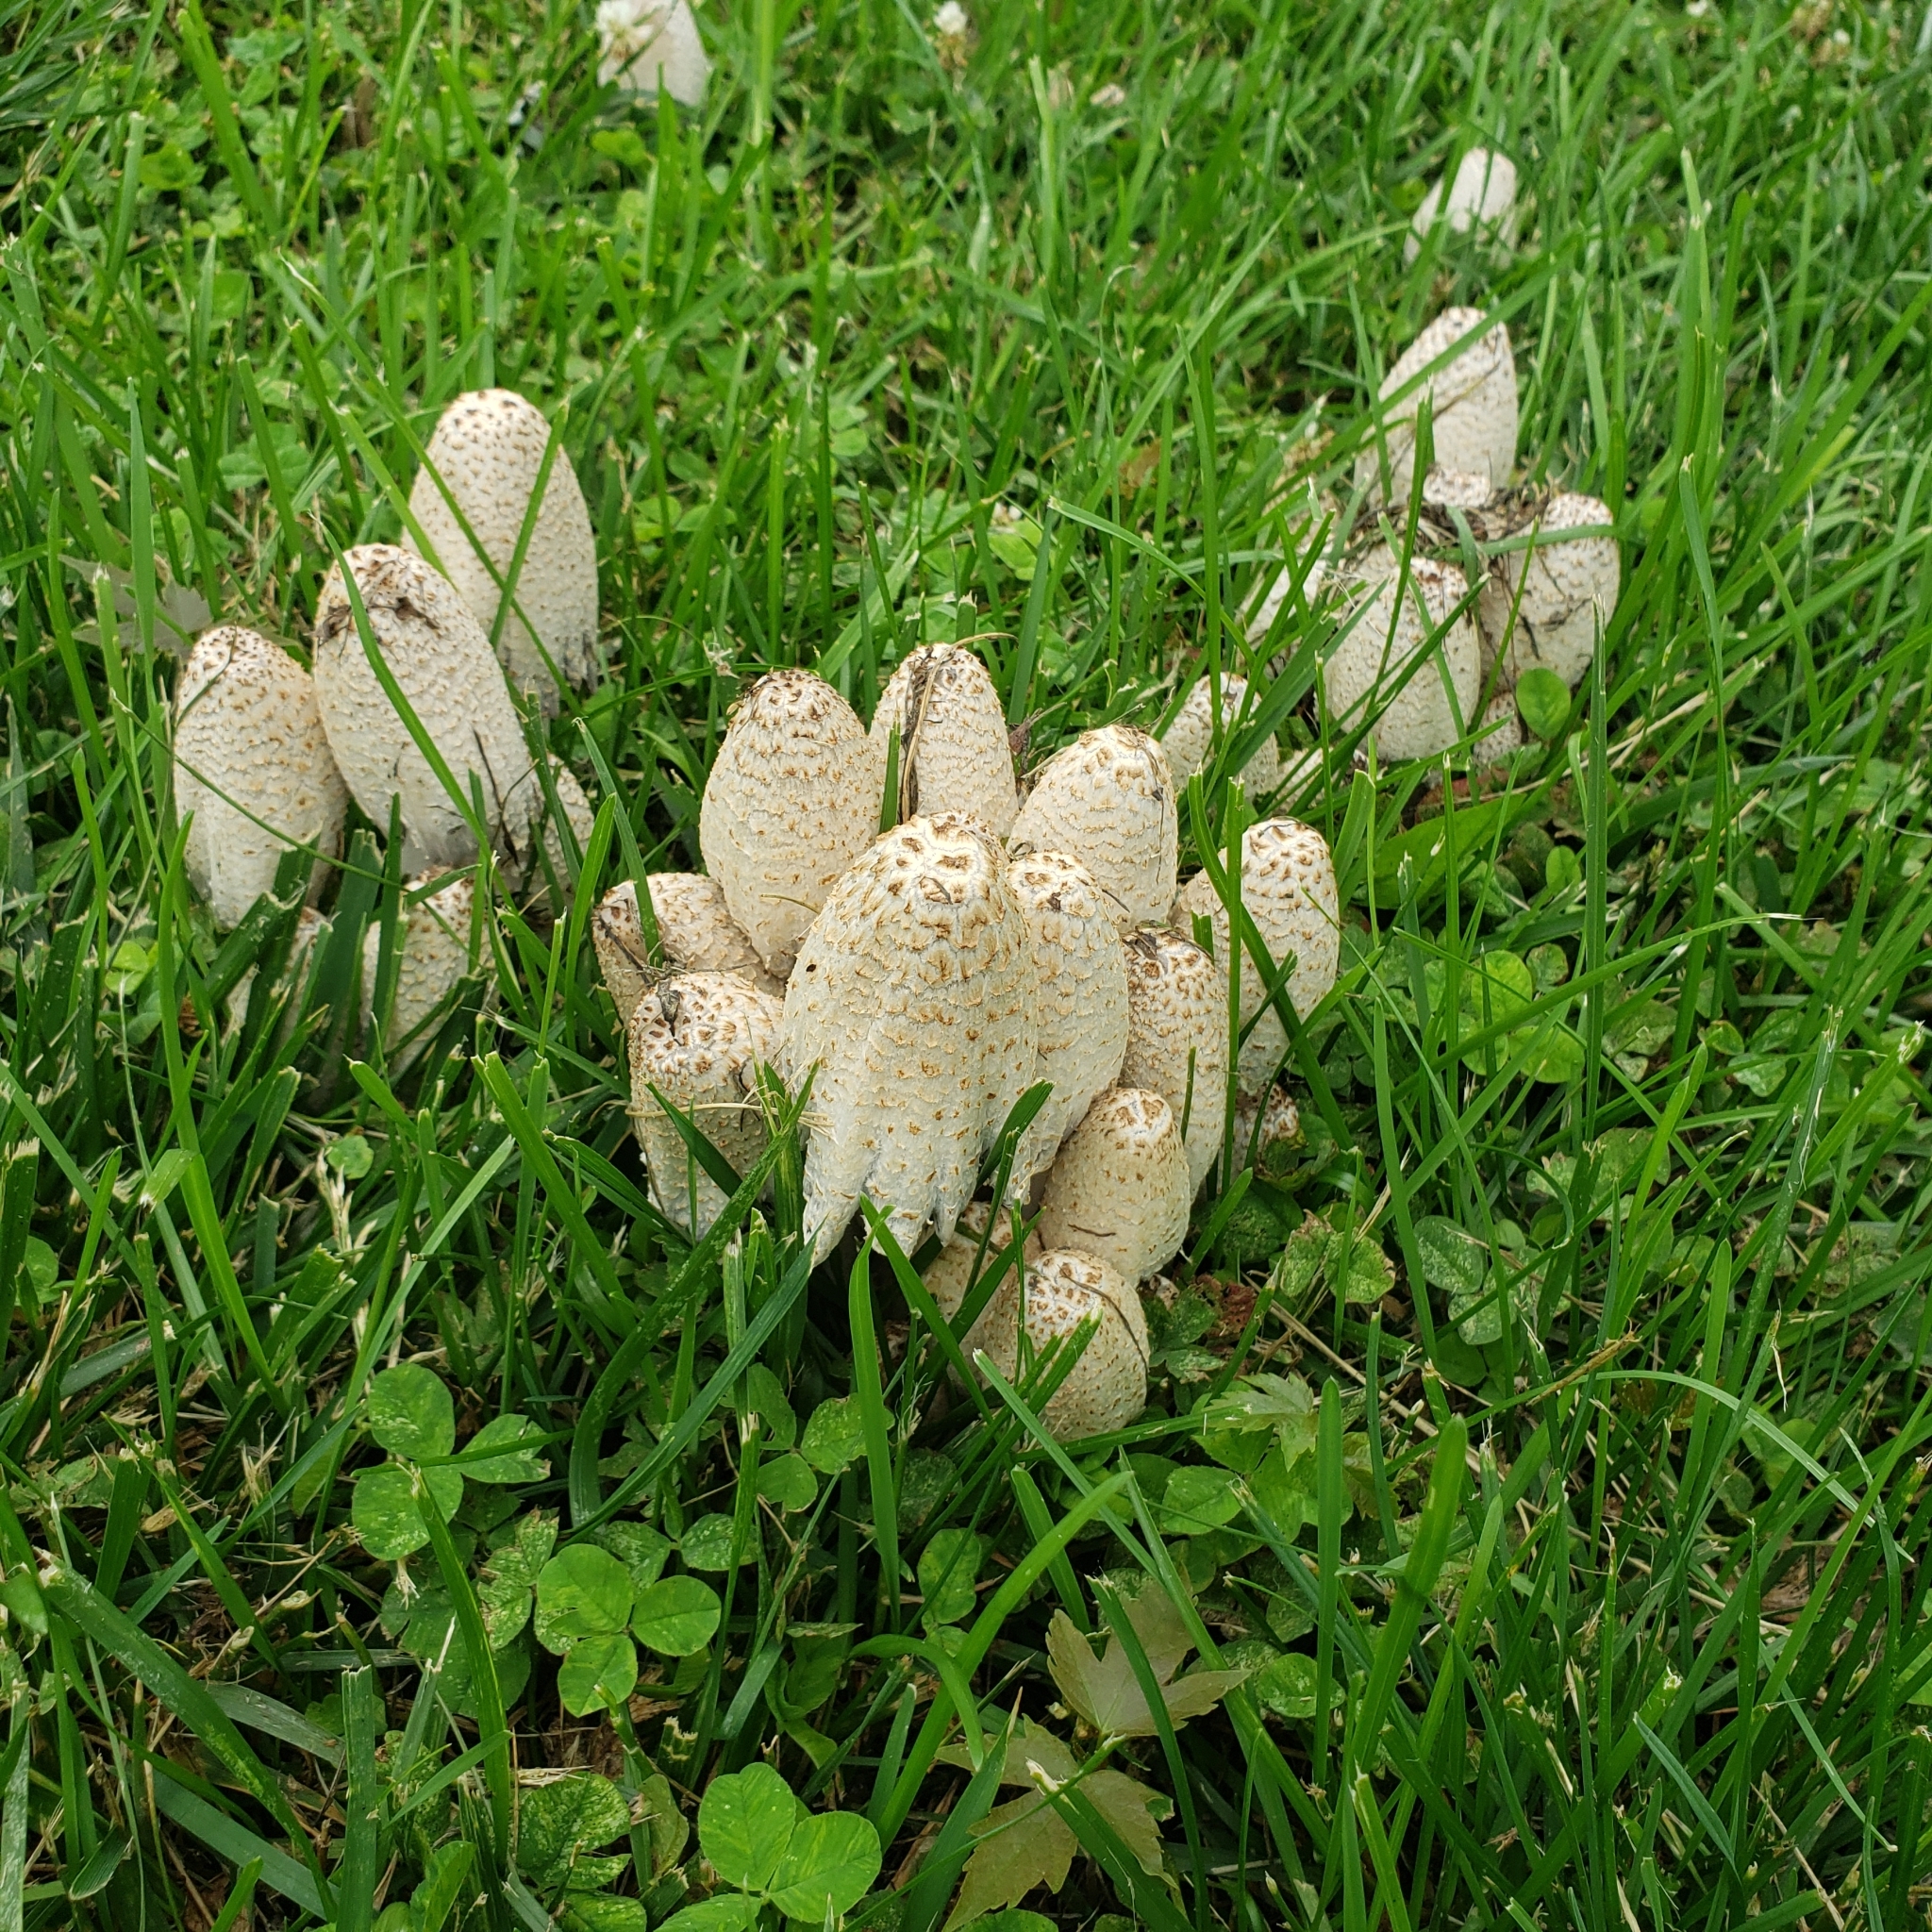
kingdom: Fungi
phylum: Basidiomycota
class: Agaricomycetes
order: Agaricales
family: Psathyrellaceae
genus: Coprinopsis
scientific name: Coprinopsis variegata
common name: Scaly ink cap
